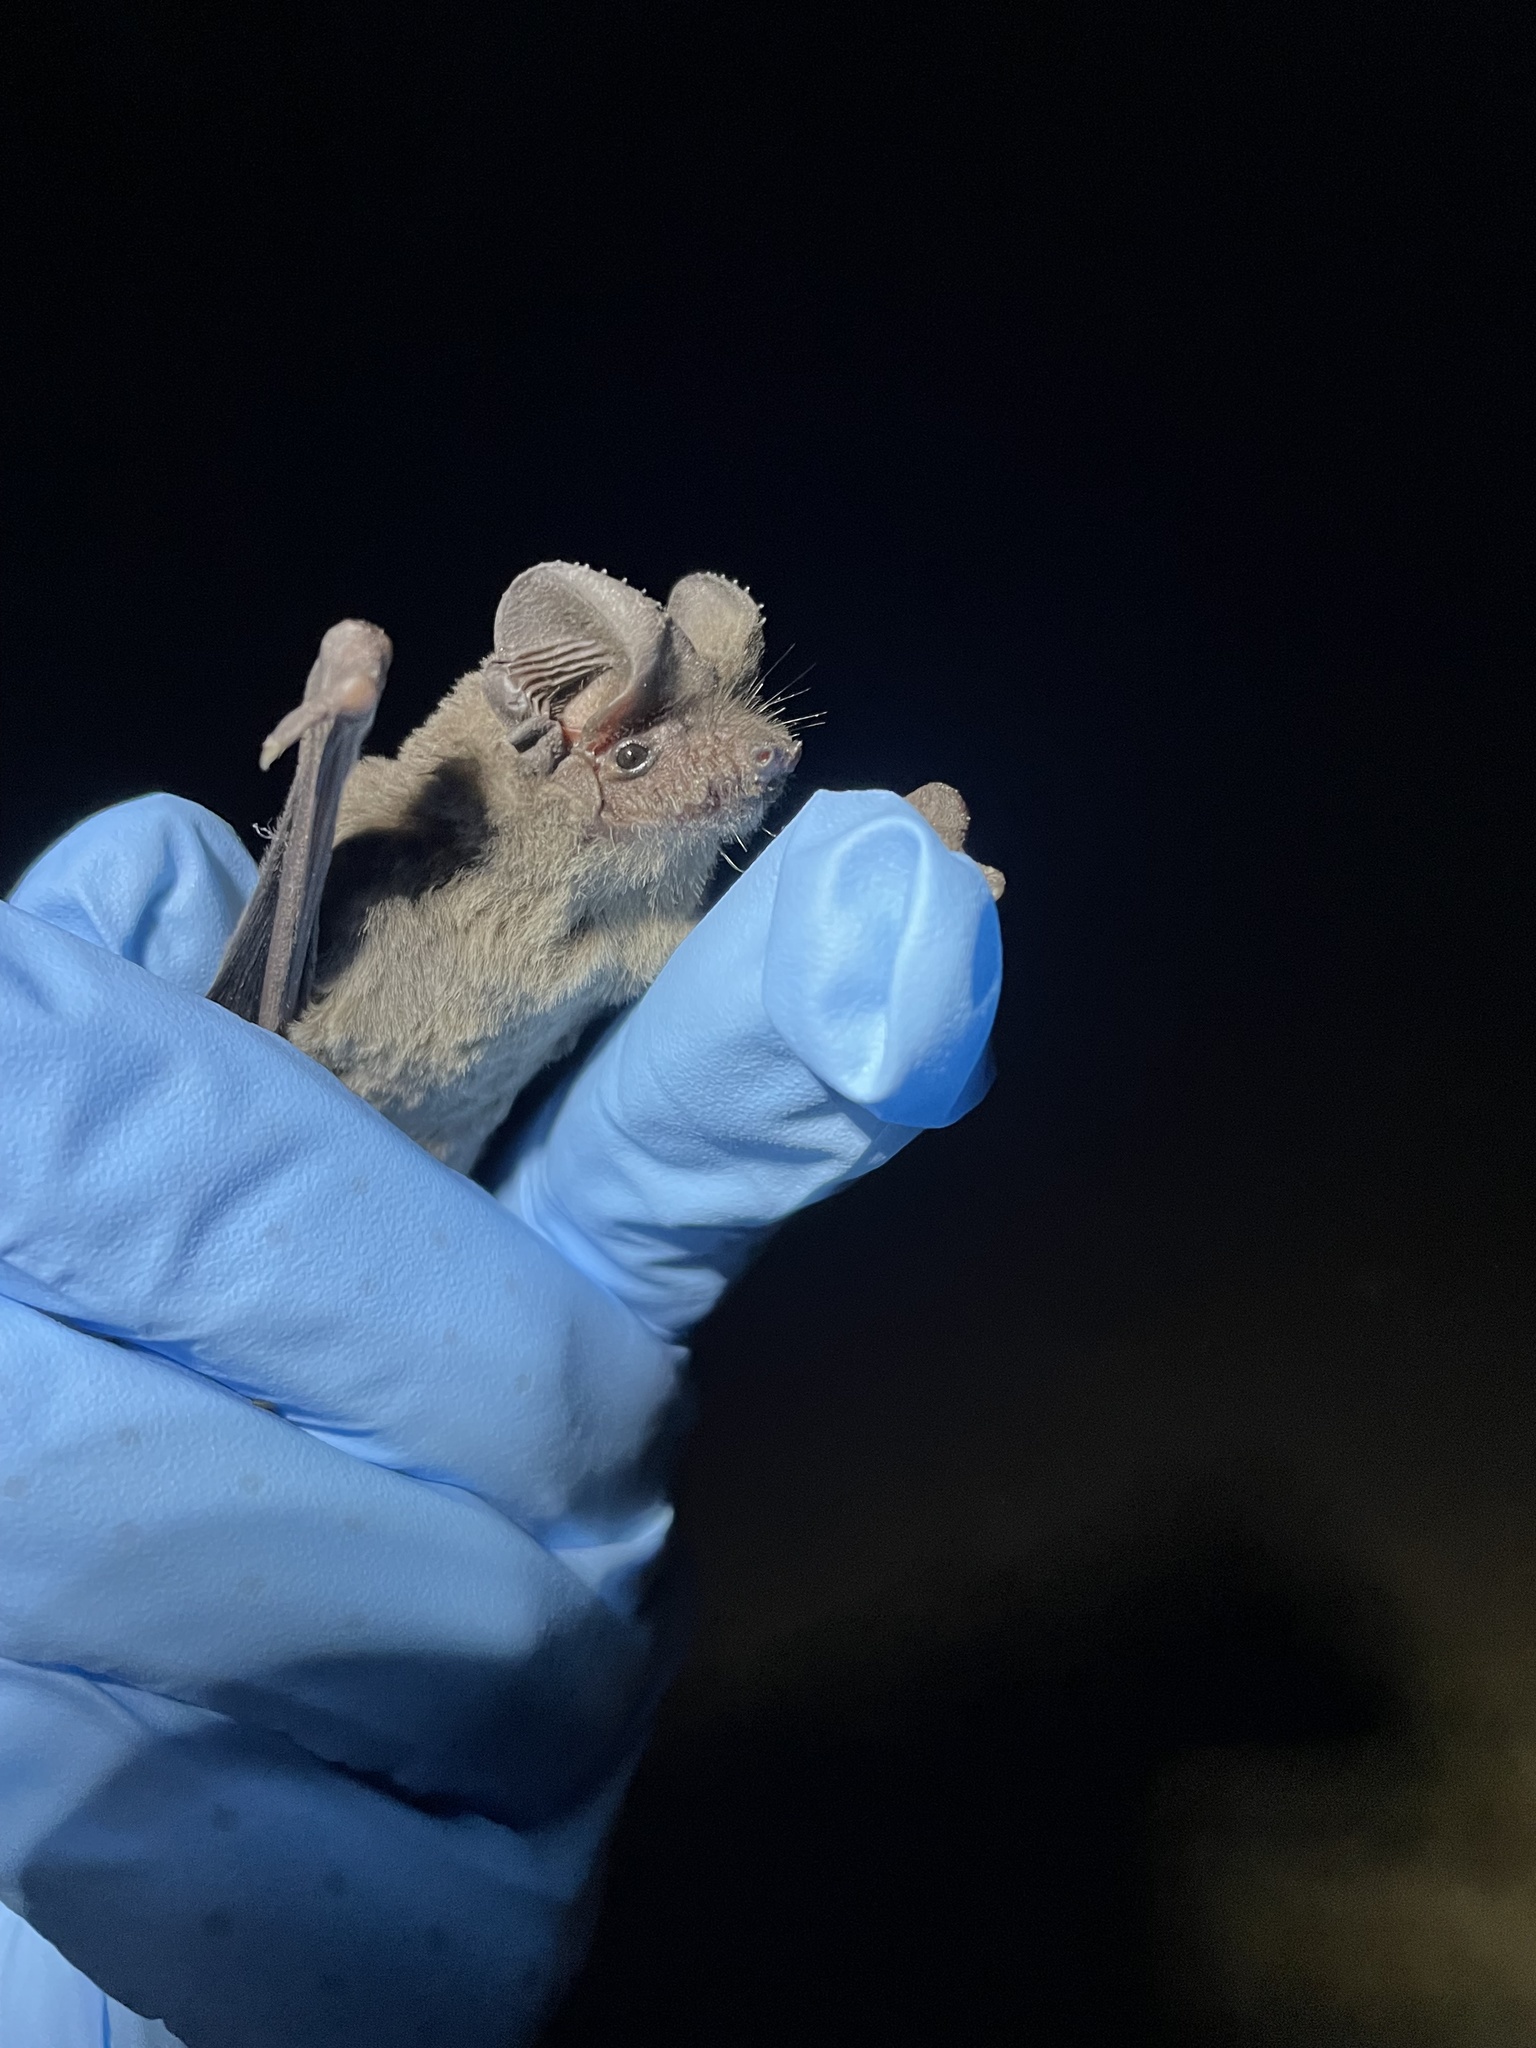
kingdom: Animalia
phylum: Chordata
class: Mammalia
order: Chiroptera
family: Molossidae
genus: Tadarida
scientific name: Tadarida brasiliensis
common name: Mexican free-tailed bat
